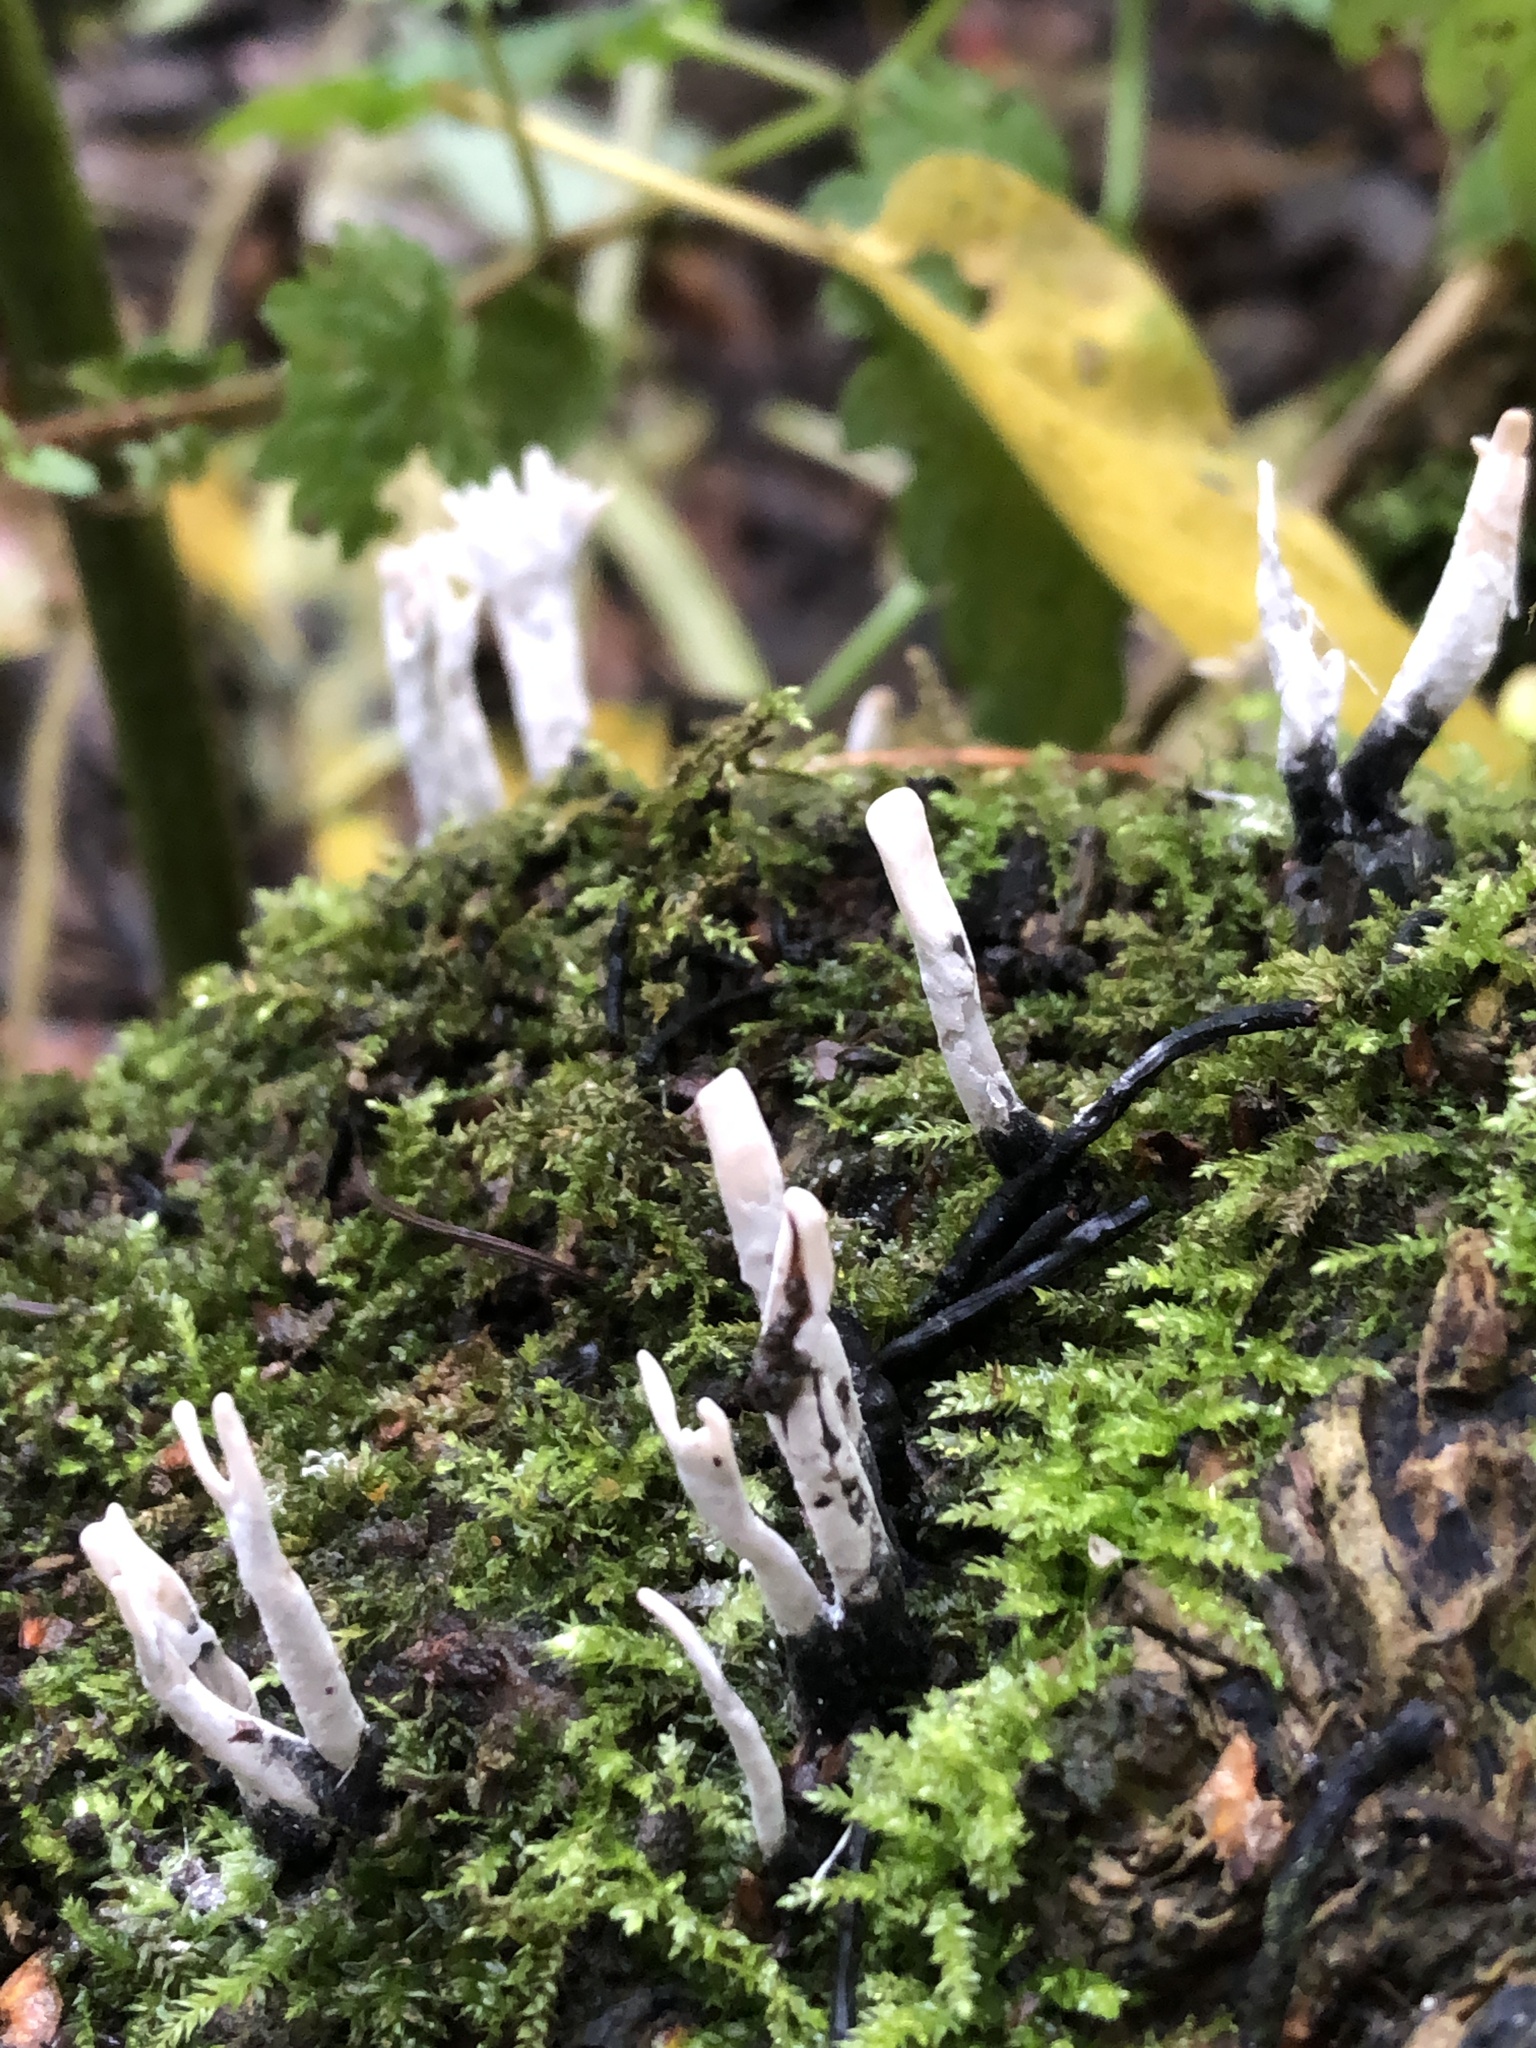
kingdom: Fungi
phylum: Ascomycota
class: Sordariomycetes
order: Xylariales
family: Xylariaceae
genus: Xylaria
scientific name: Xylaria hypoxylon
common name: Candle-snuff fungus
